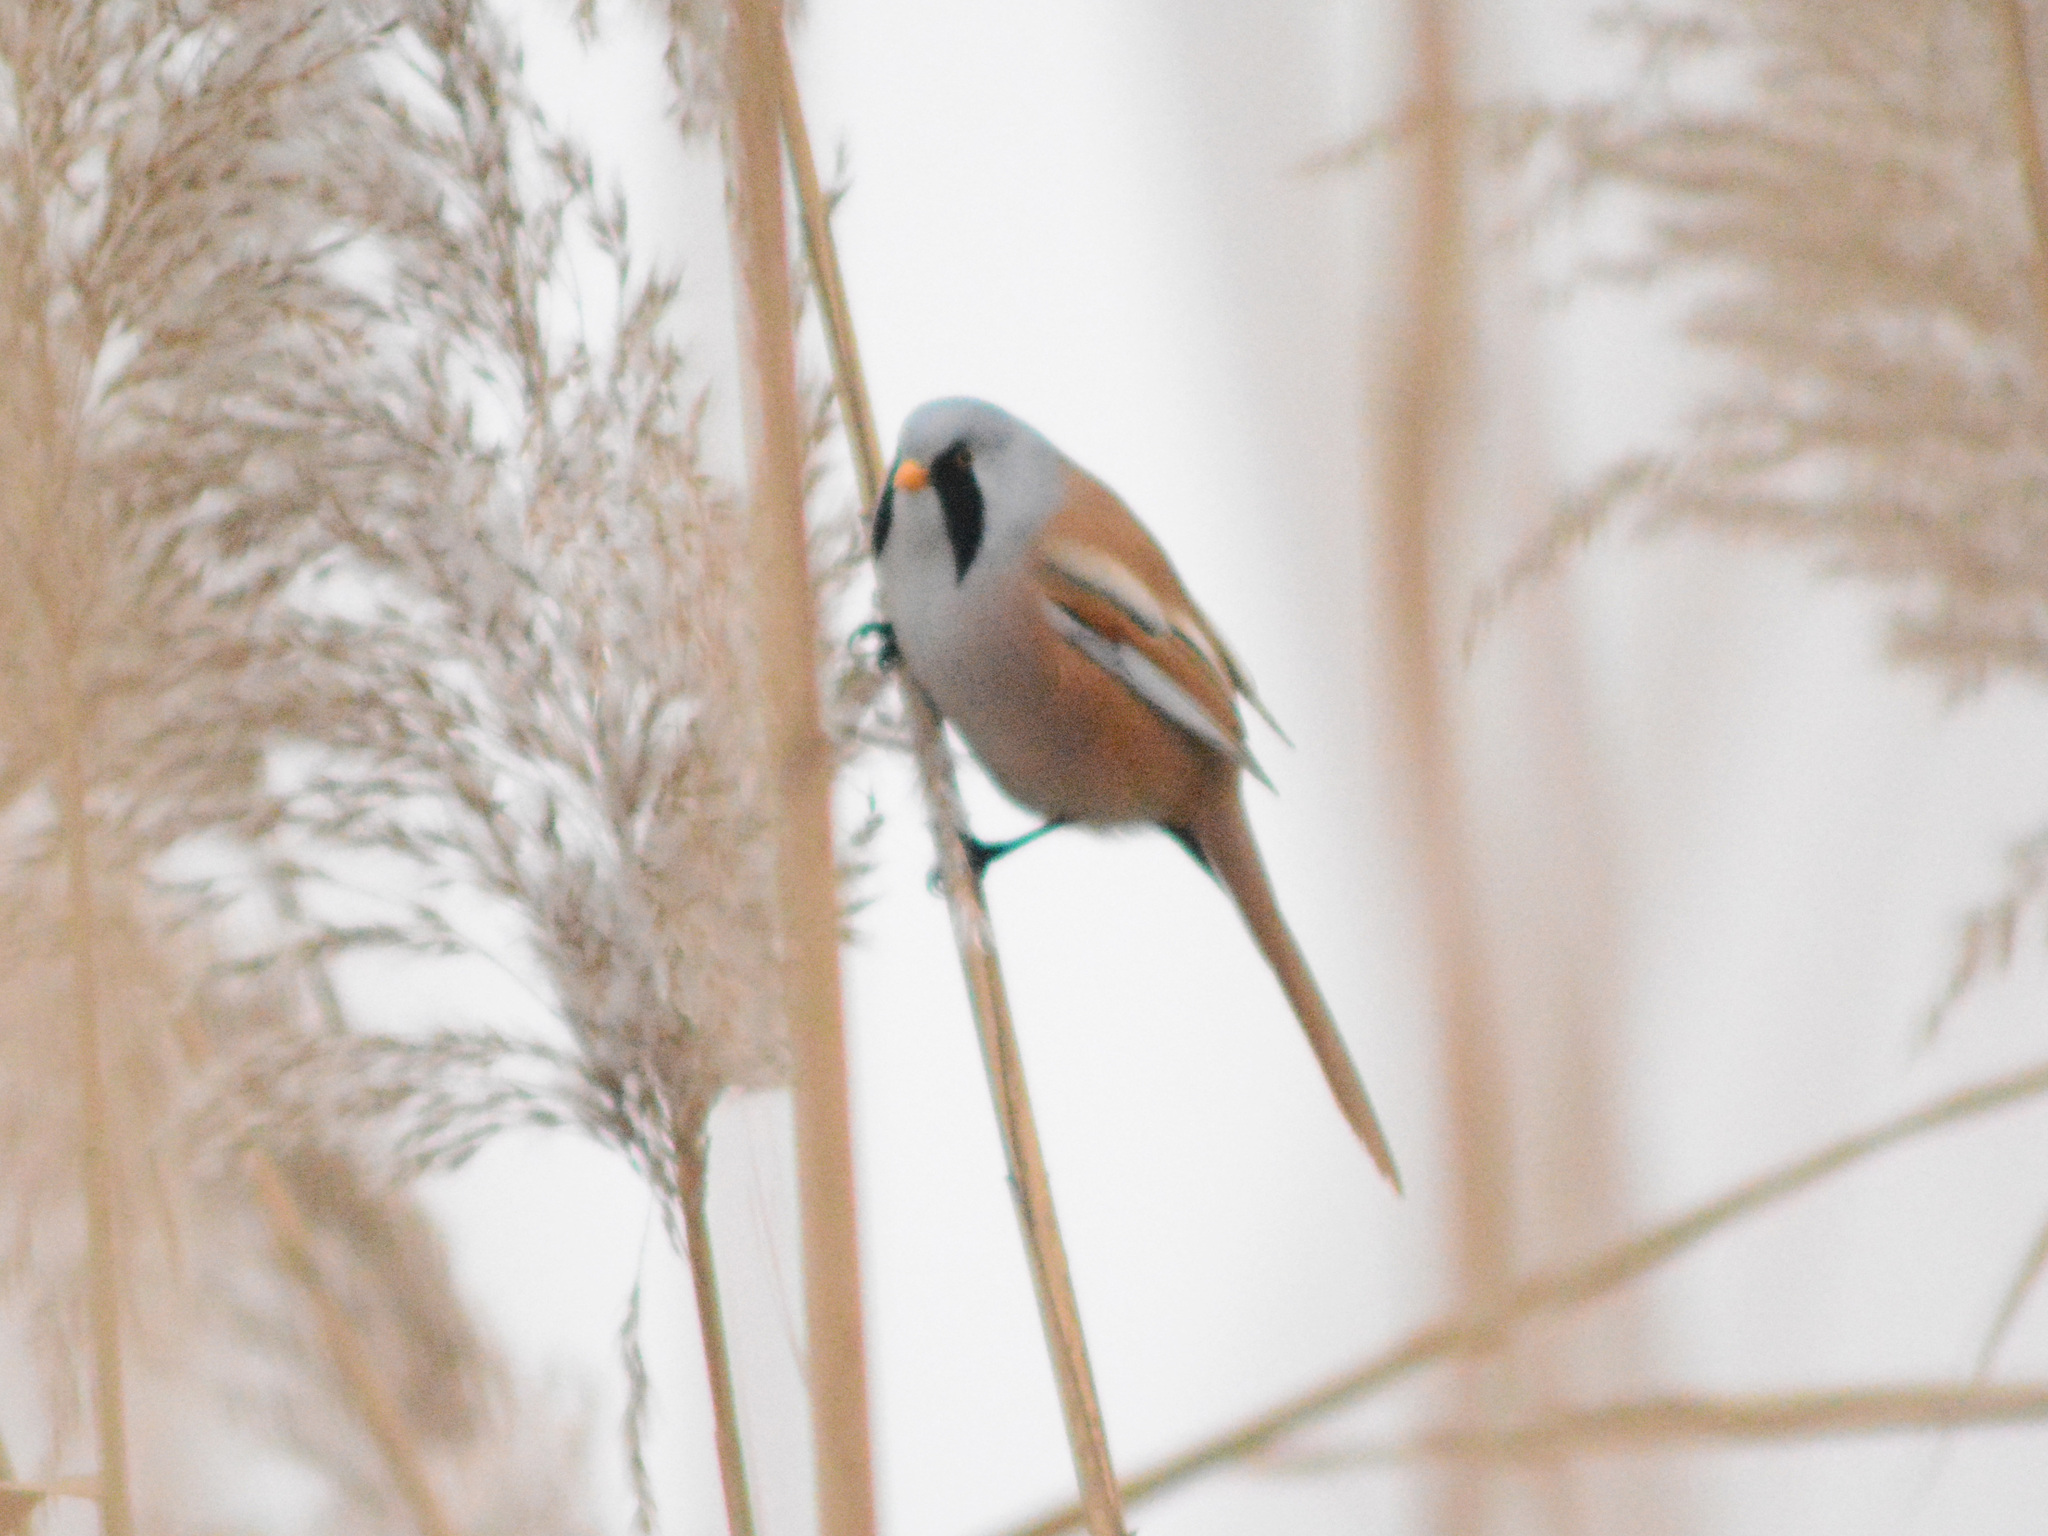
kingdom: Animalia
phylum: Chordata
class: Aves
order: Passeriformes
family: Panuridae
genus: Panurus
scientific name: Panurus biarmicus
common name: Bearded reedling
